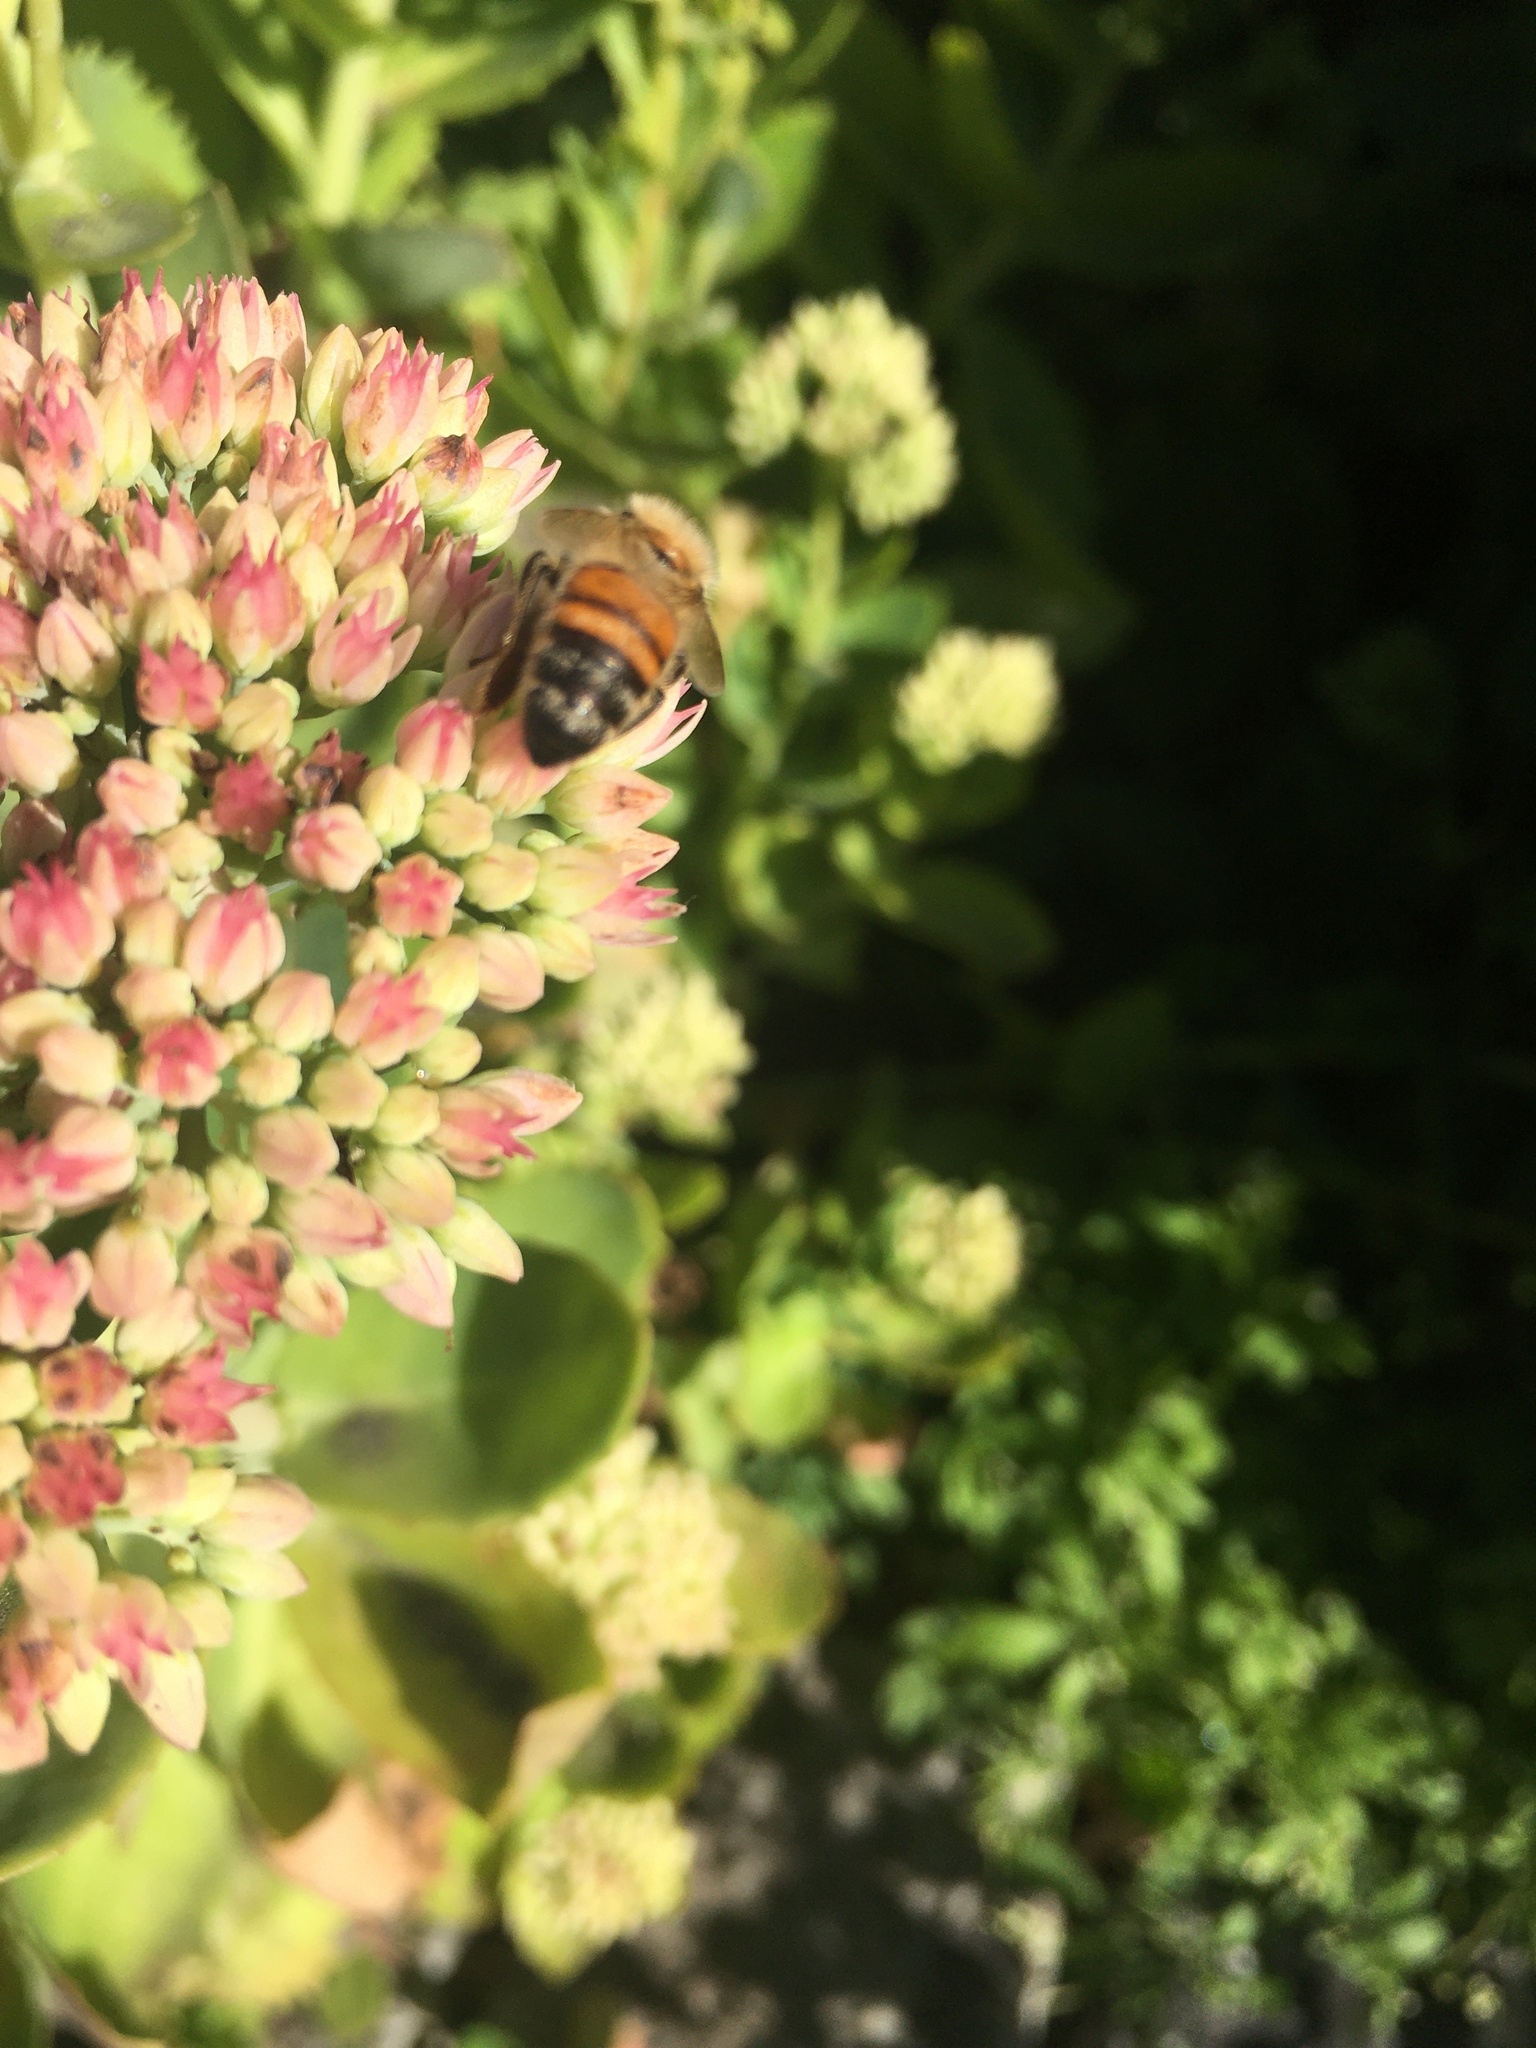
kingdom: Animalia
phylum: Arthropoda
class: Insecta
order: Hymenoptera
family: Apidae
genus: Apis
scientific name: Apis mellifera
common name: Honey bee
